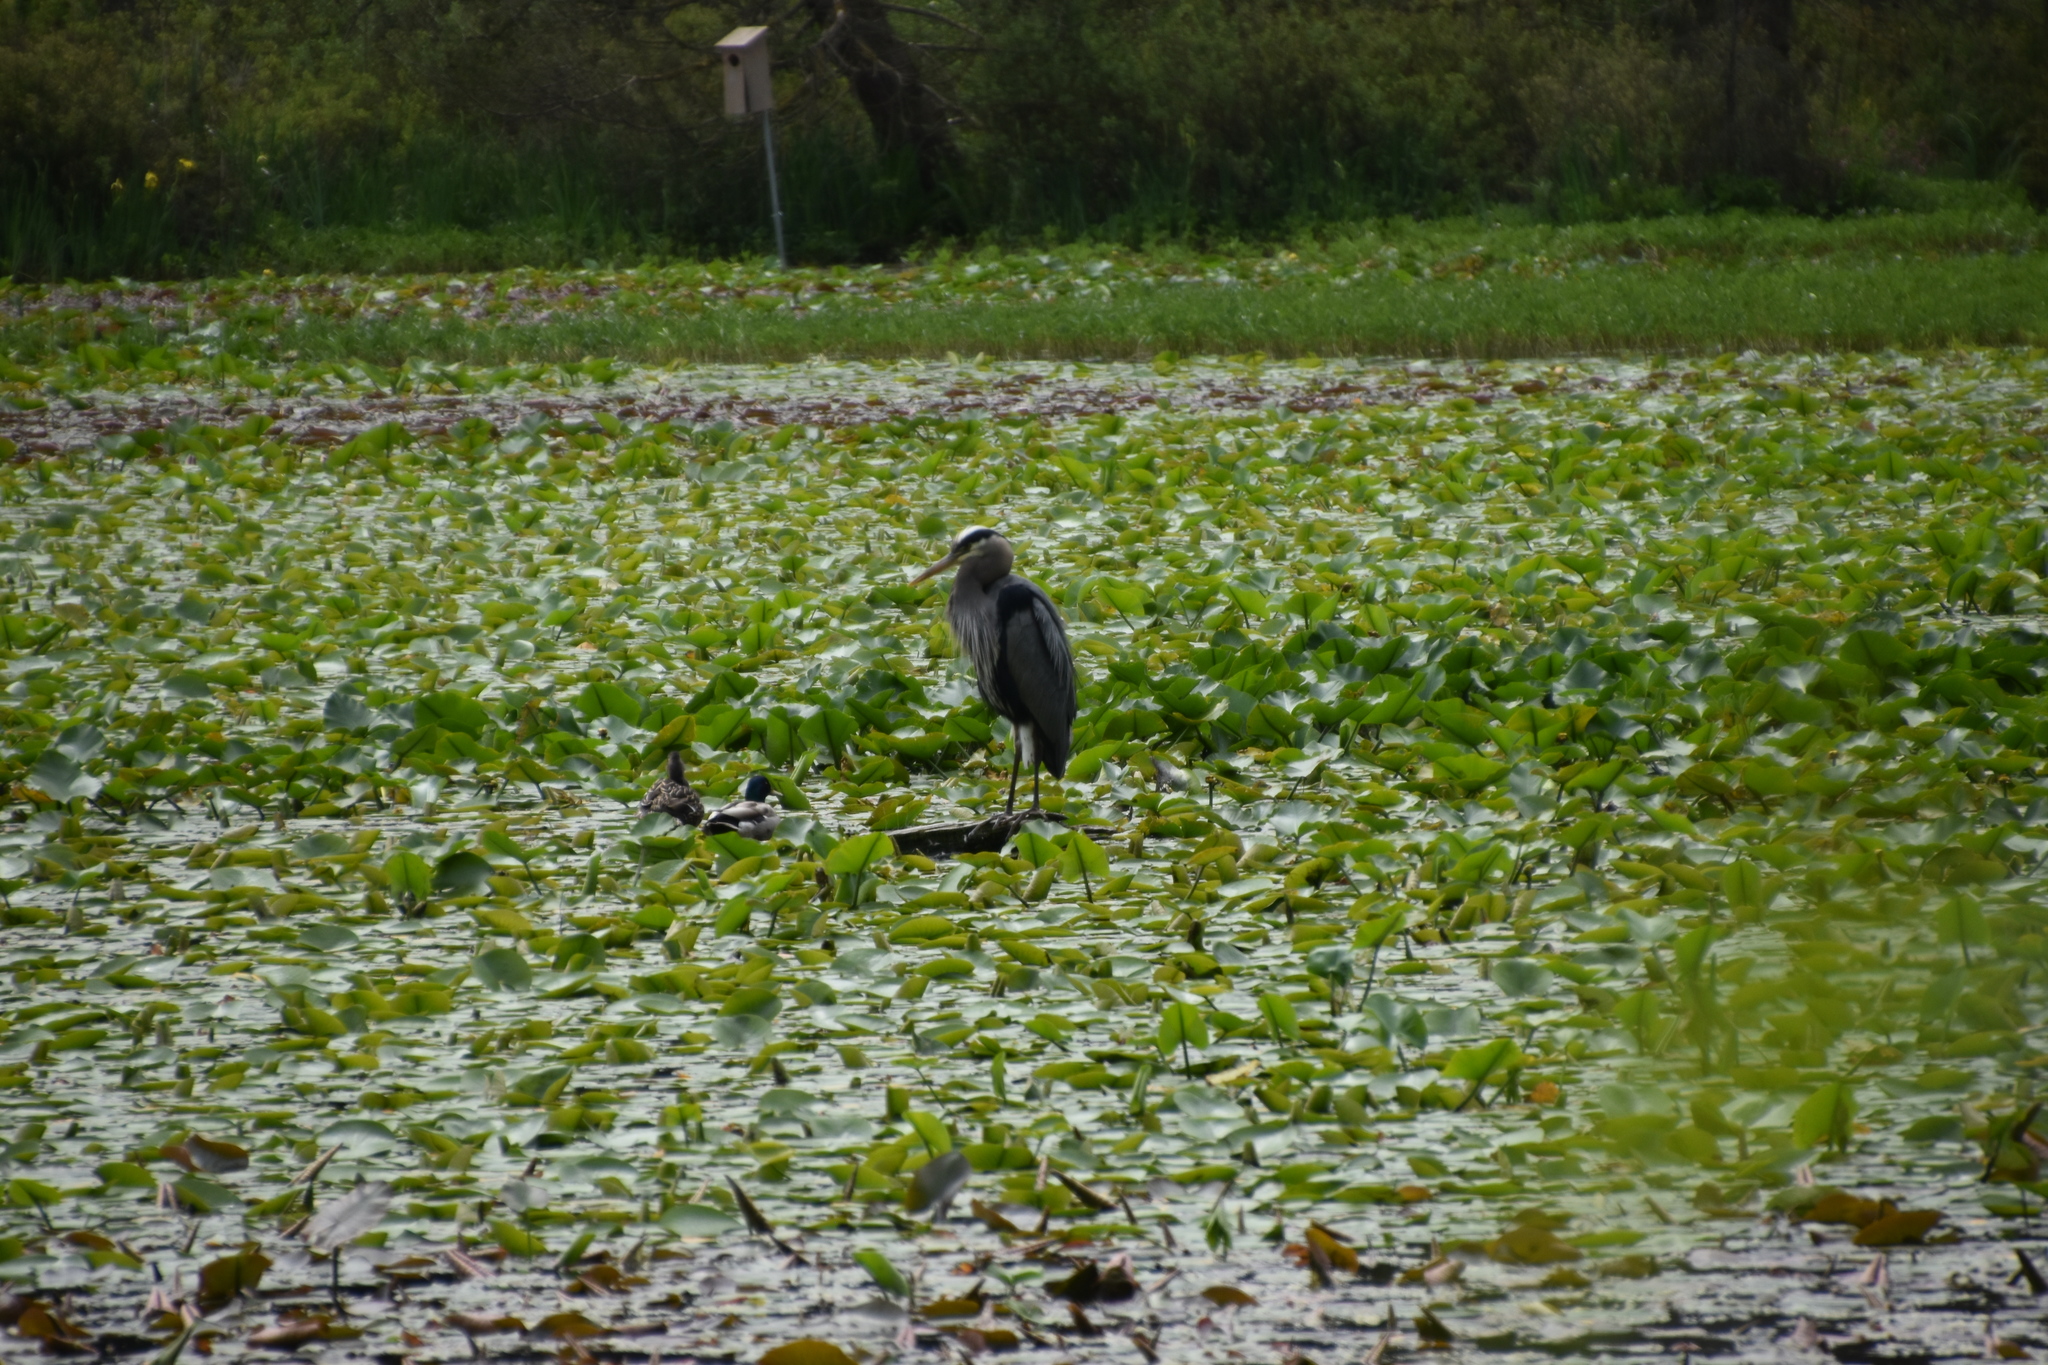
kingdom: Animalia
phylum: Chordata
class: Aves
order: Pelecaniformes
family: Ardeidae
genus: Ardea
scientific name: Ardea herodias
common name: Great blue heron
